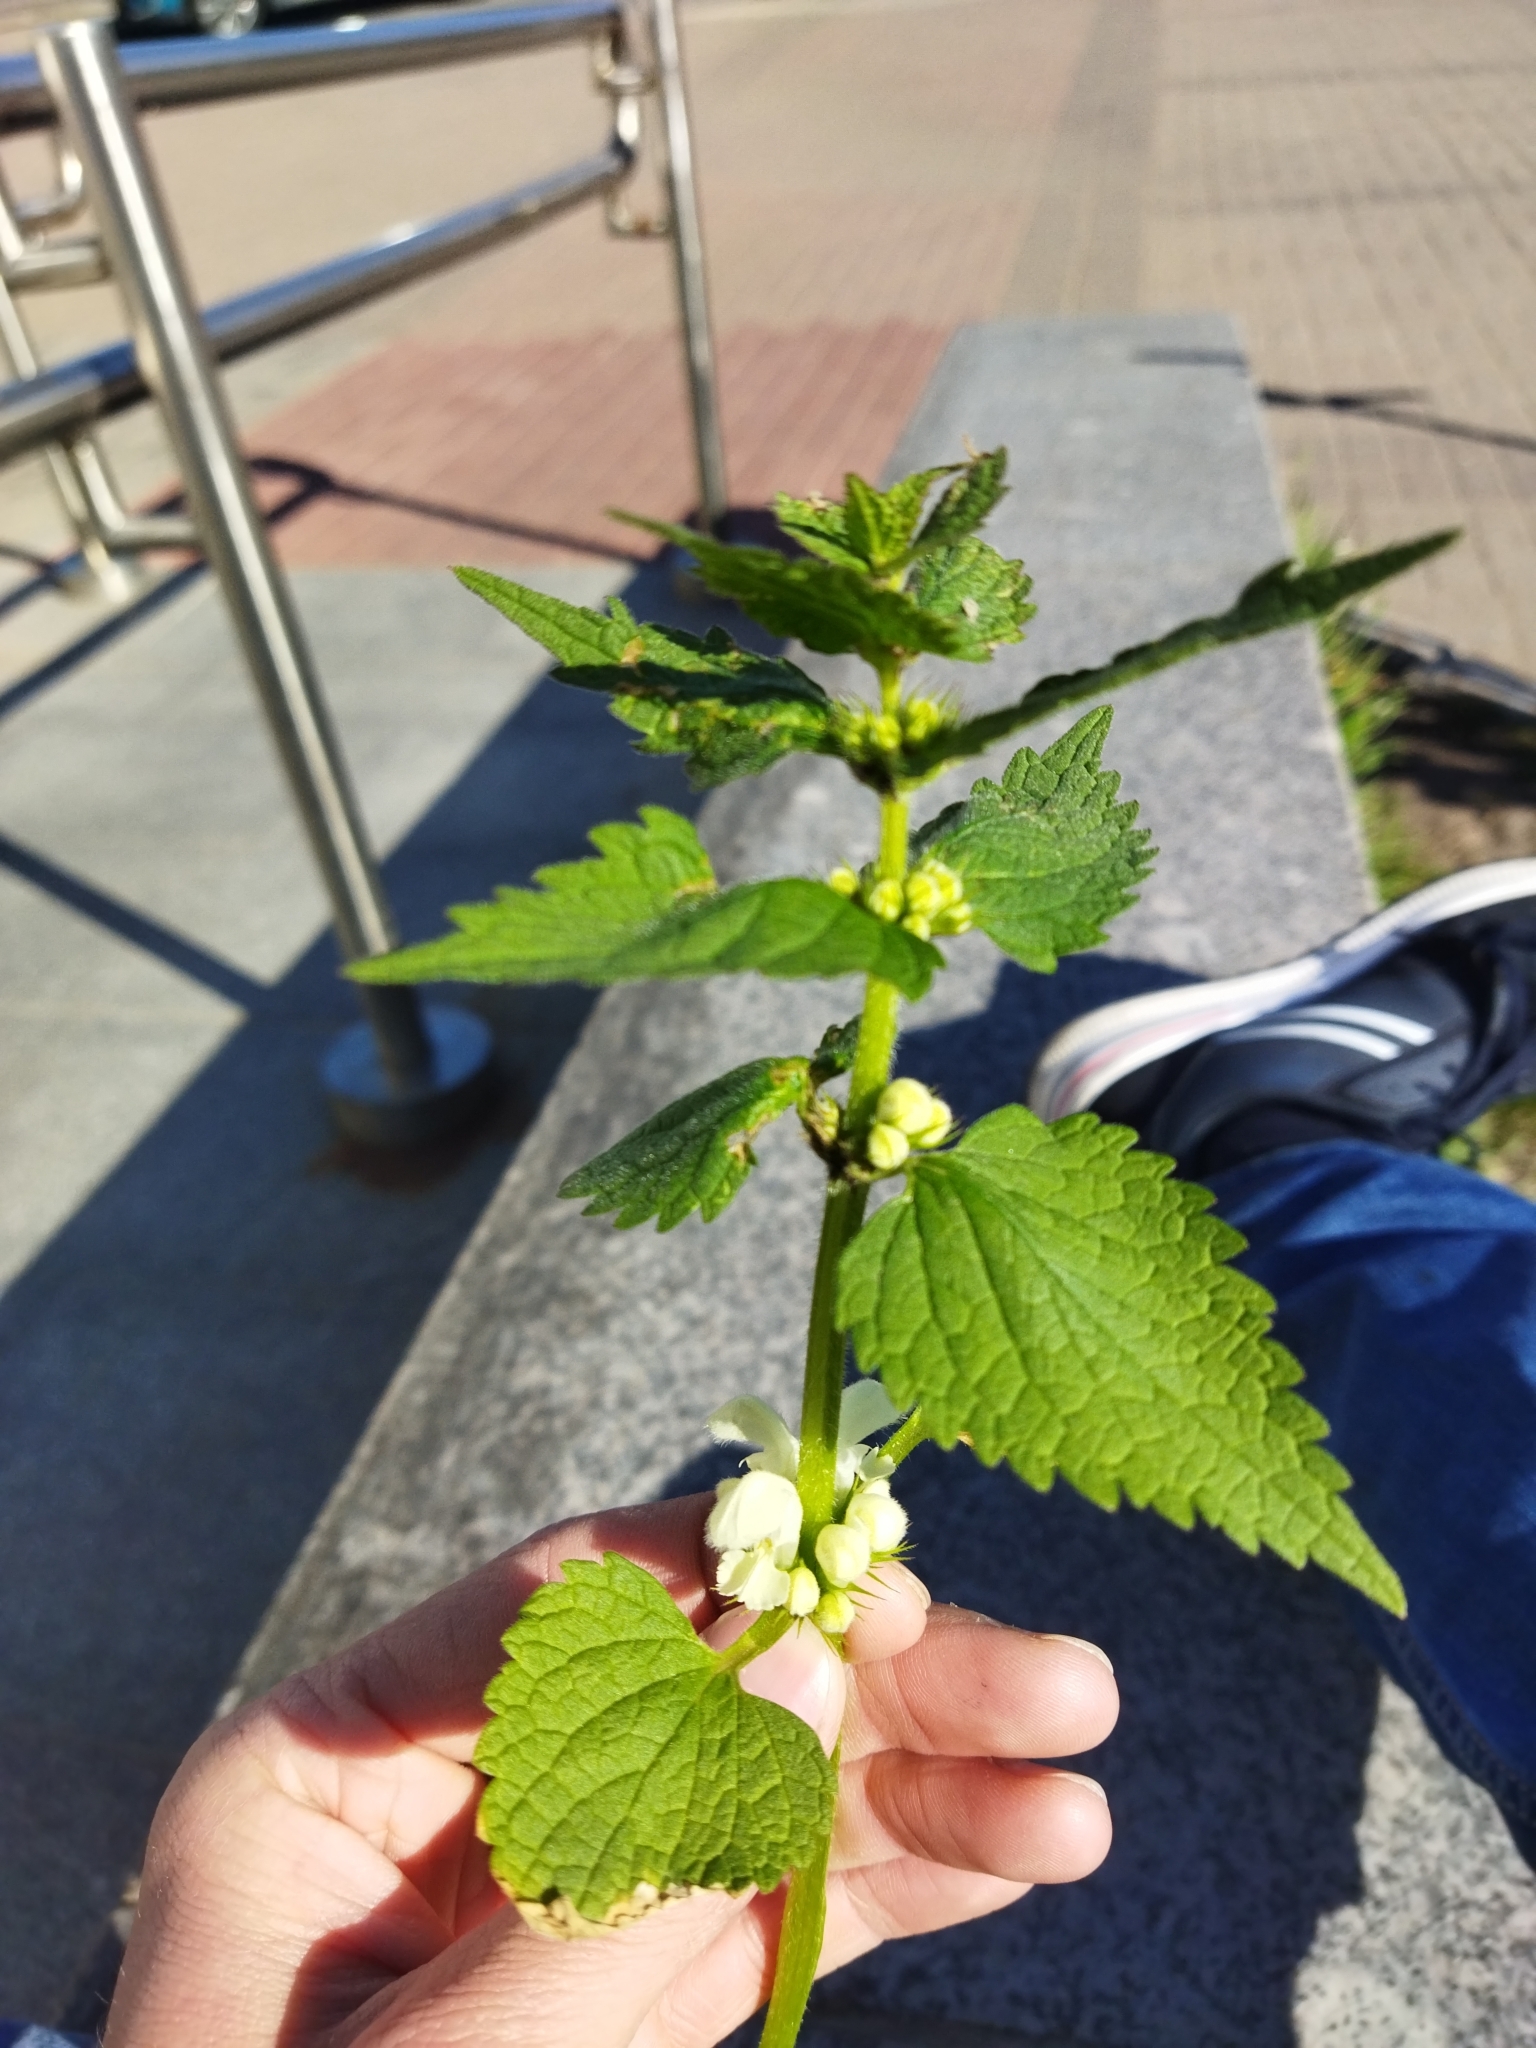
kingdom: Plantae
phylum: Tracheophyta
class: Magnoliopsida
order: Lamiales
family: Lamiaceae
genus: Lamium
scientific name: Lamium album
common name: White dead-nettle
